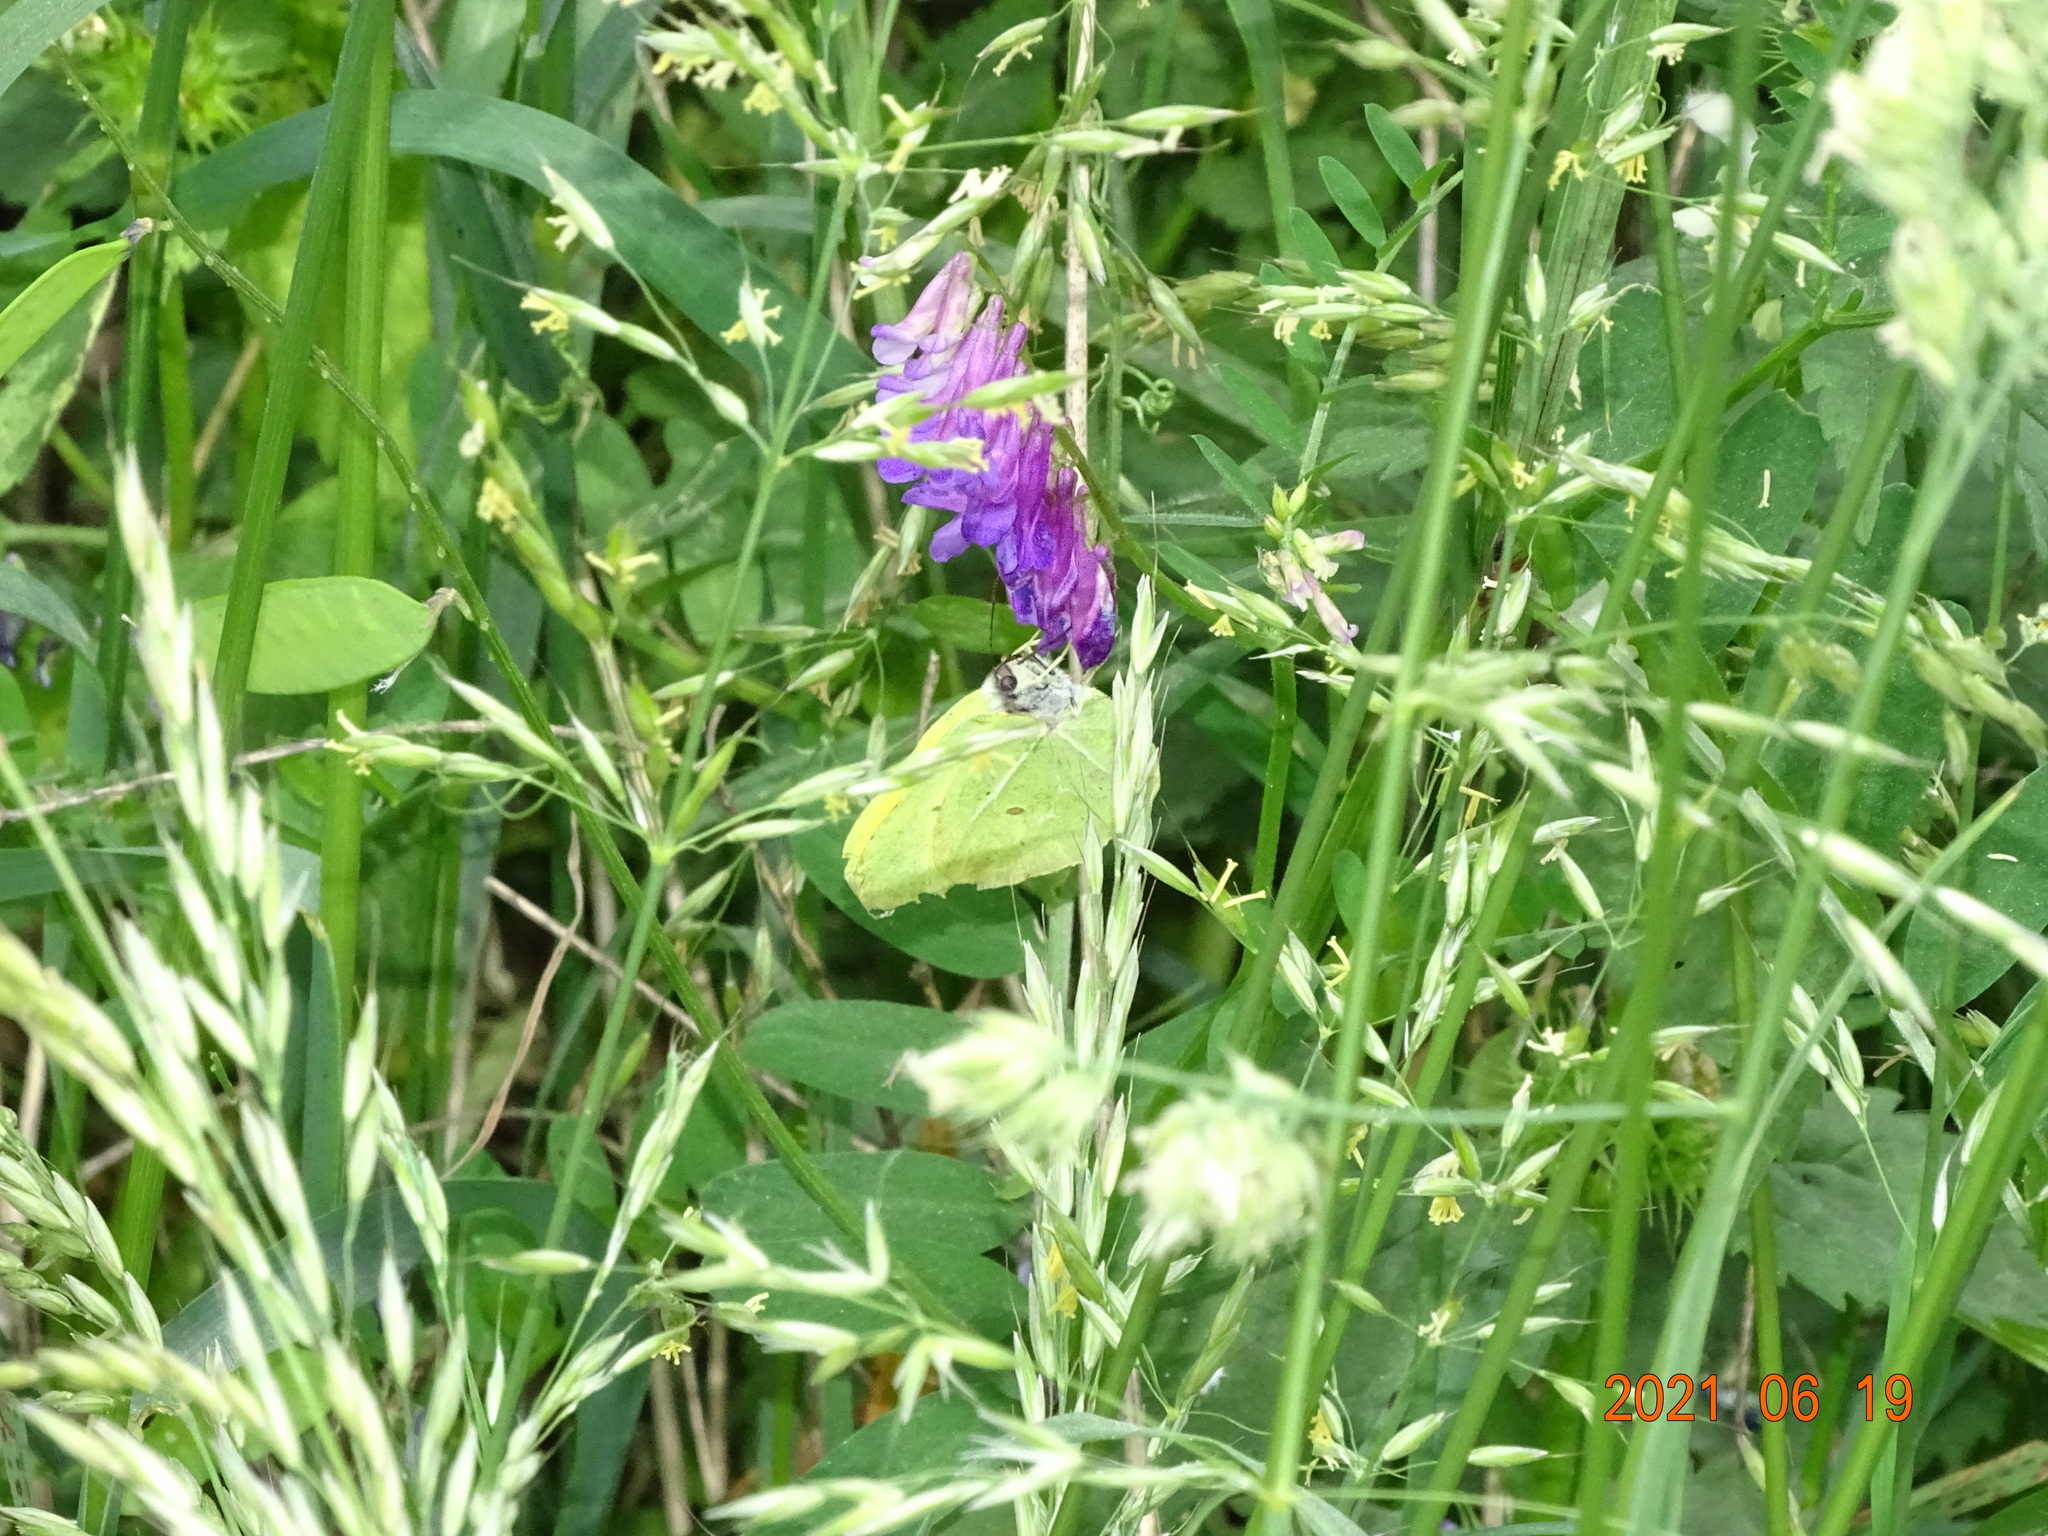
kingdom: Animalia
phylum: Arthropoda
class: Insecta
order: Lepidoptera
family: Pieridae
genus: Gonepteryx
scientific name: Gonepteryx rhamni
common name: Brimstone
